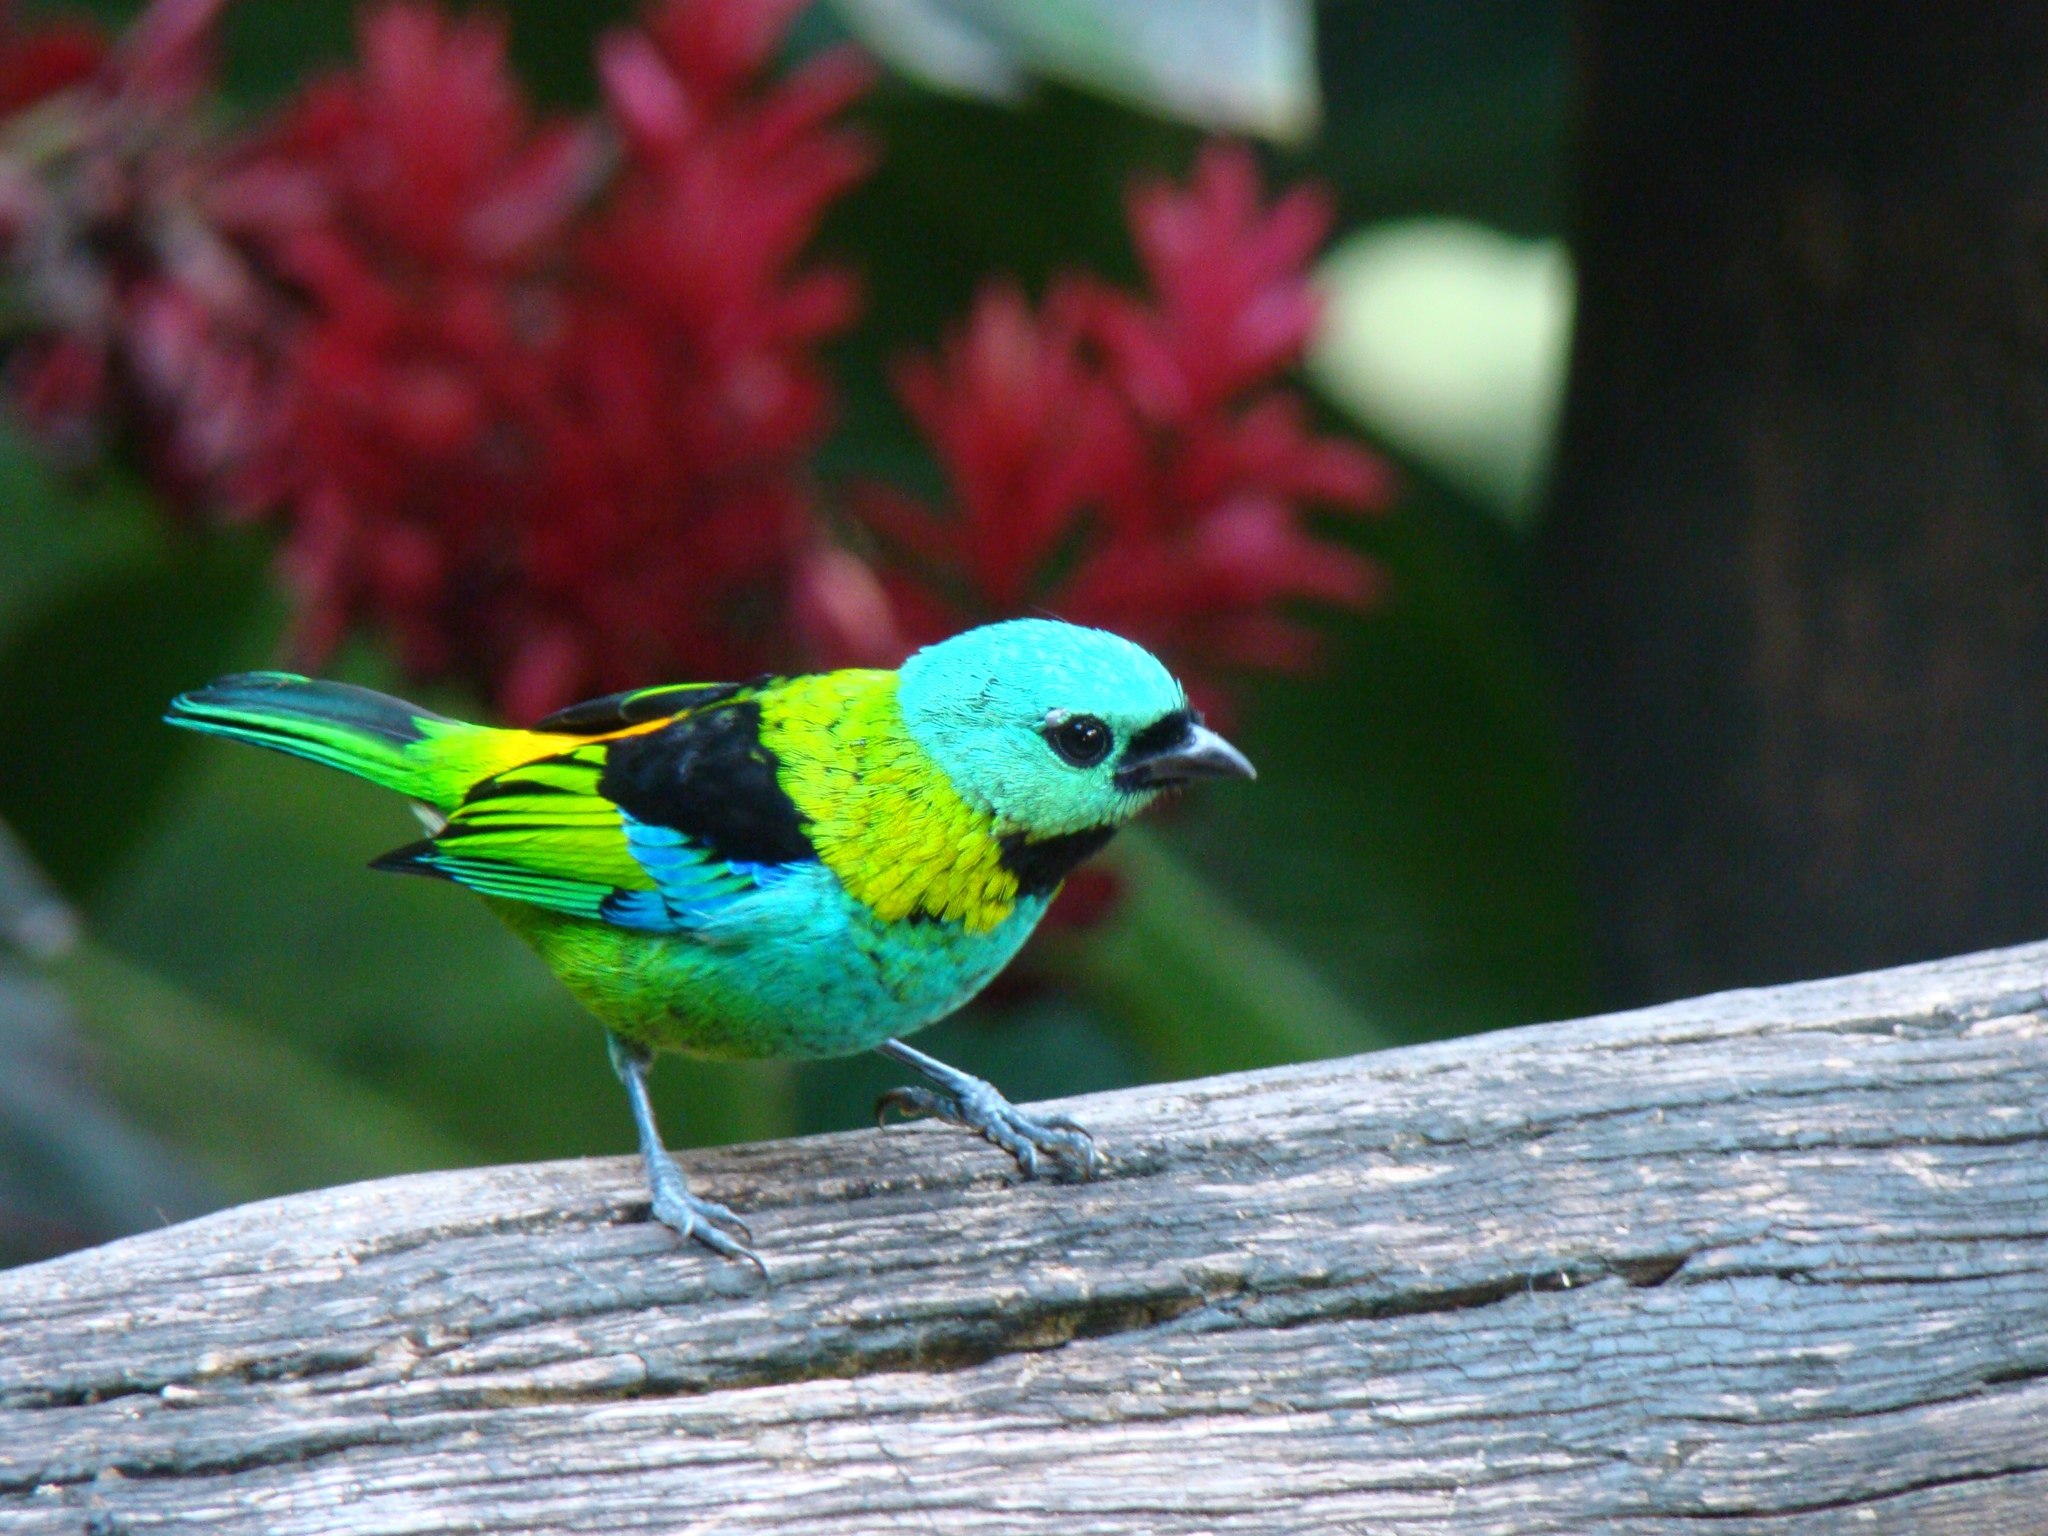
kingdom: Animalia
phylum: Chordata
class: Aves
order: Passeriformes
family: Thraupidae
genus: Tangara
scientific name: Tangara seledon
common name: Green-headed tanager
